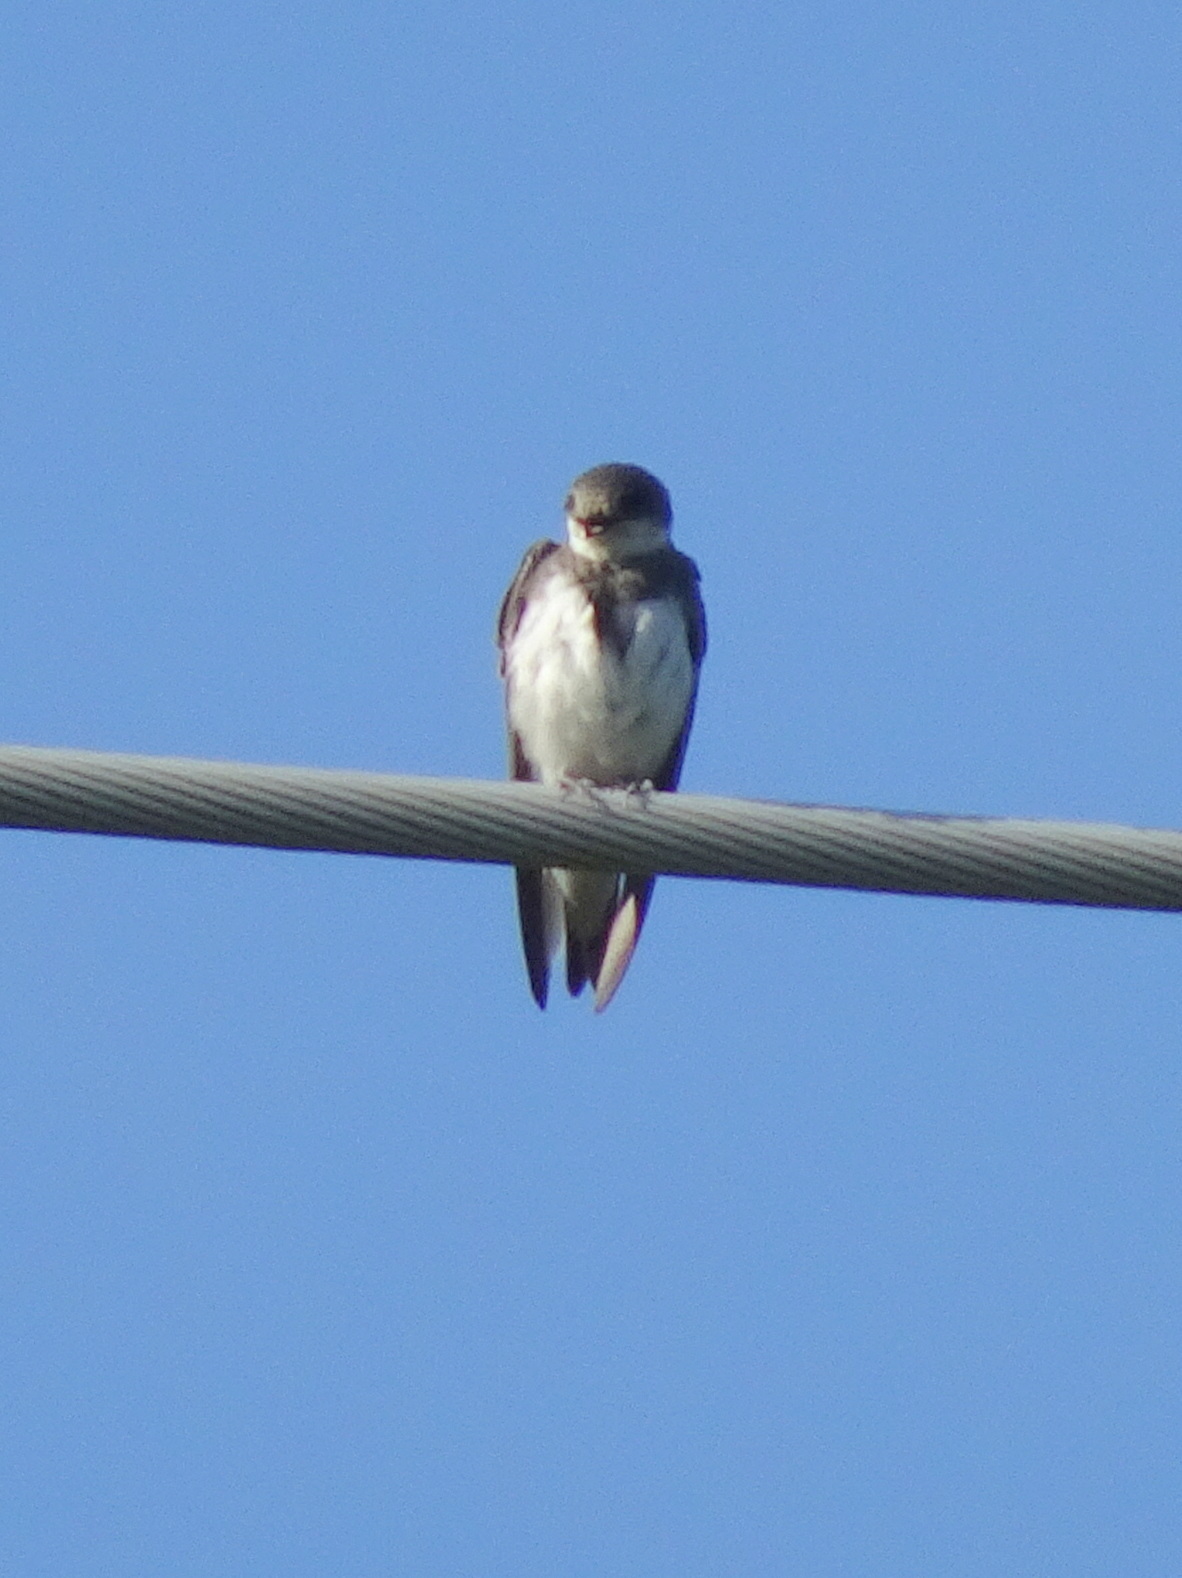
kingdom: Animalia
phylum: Chordata
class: Aves
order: Passeriformes
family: Hirundinidae
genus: Riparia
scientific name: Riparia riparia
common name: Sand martin
